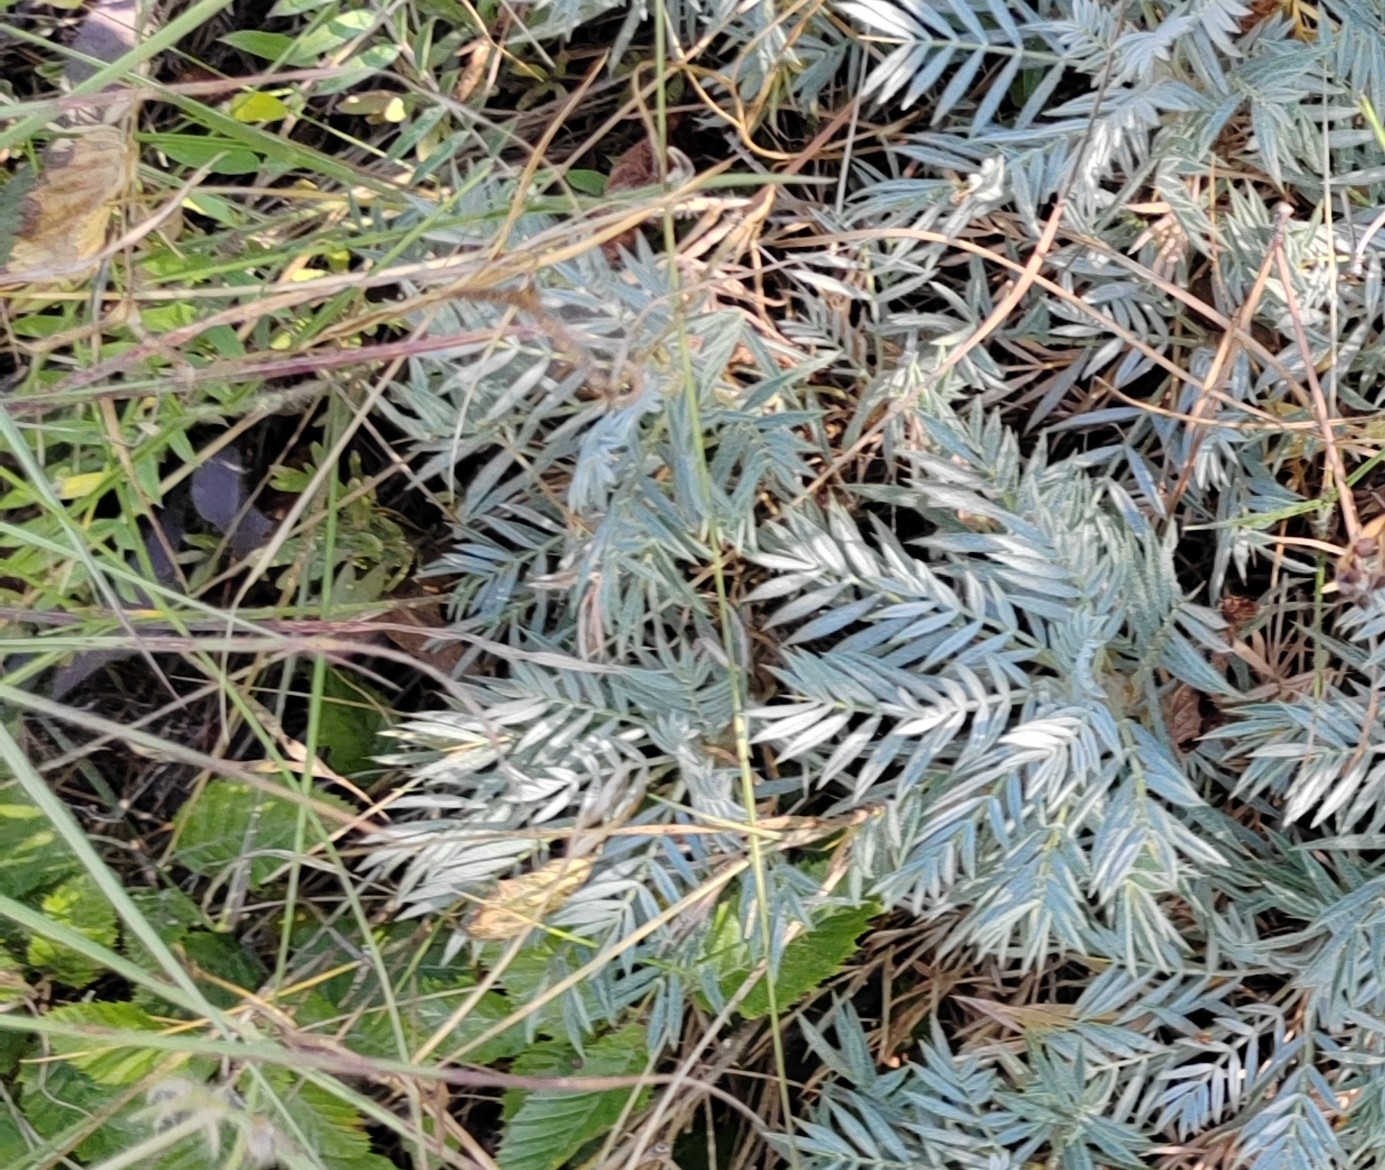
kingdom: Plantae
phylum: Tracheophyta
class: Magnoliopsida
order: Fabales
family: Fabaceae
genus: Astragalus
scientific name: Astragalus arnacanthoides
